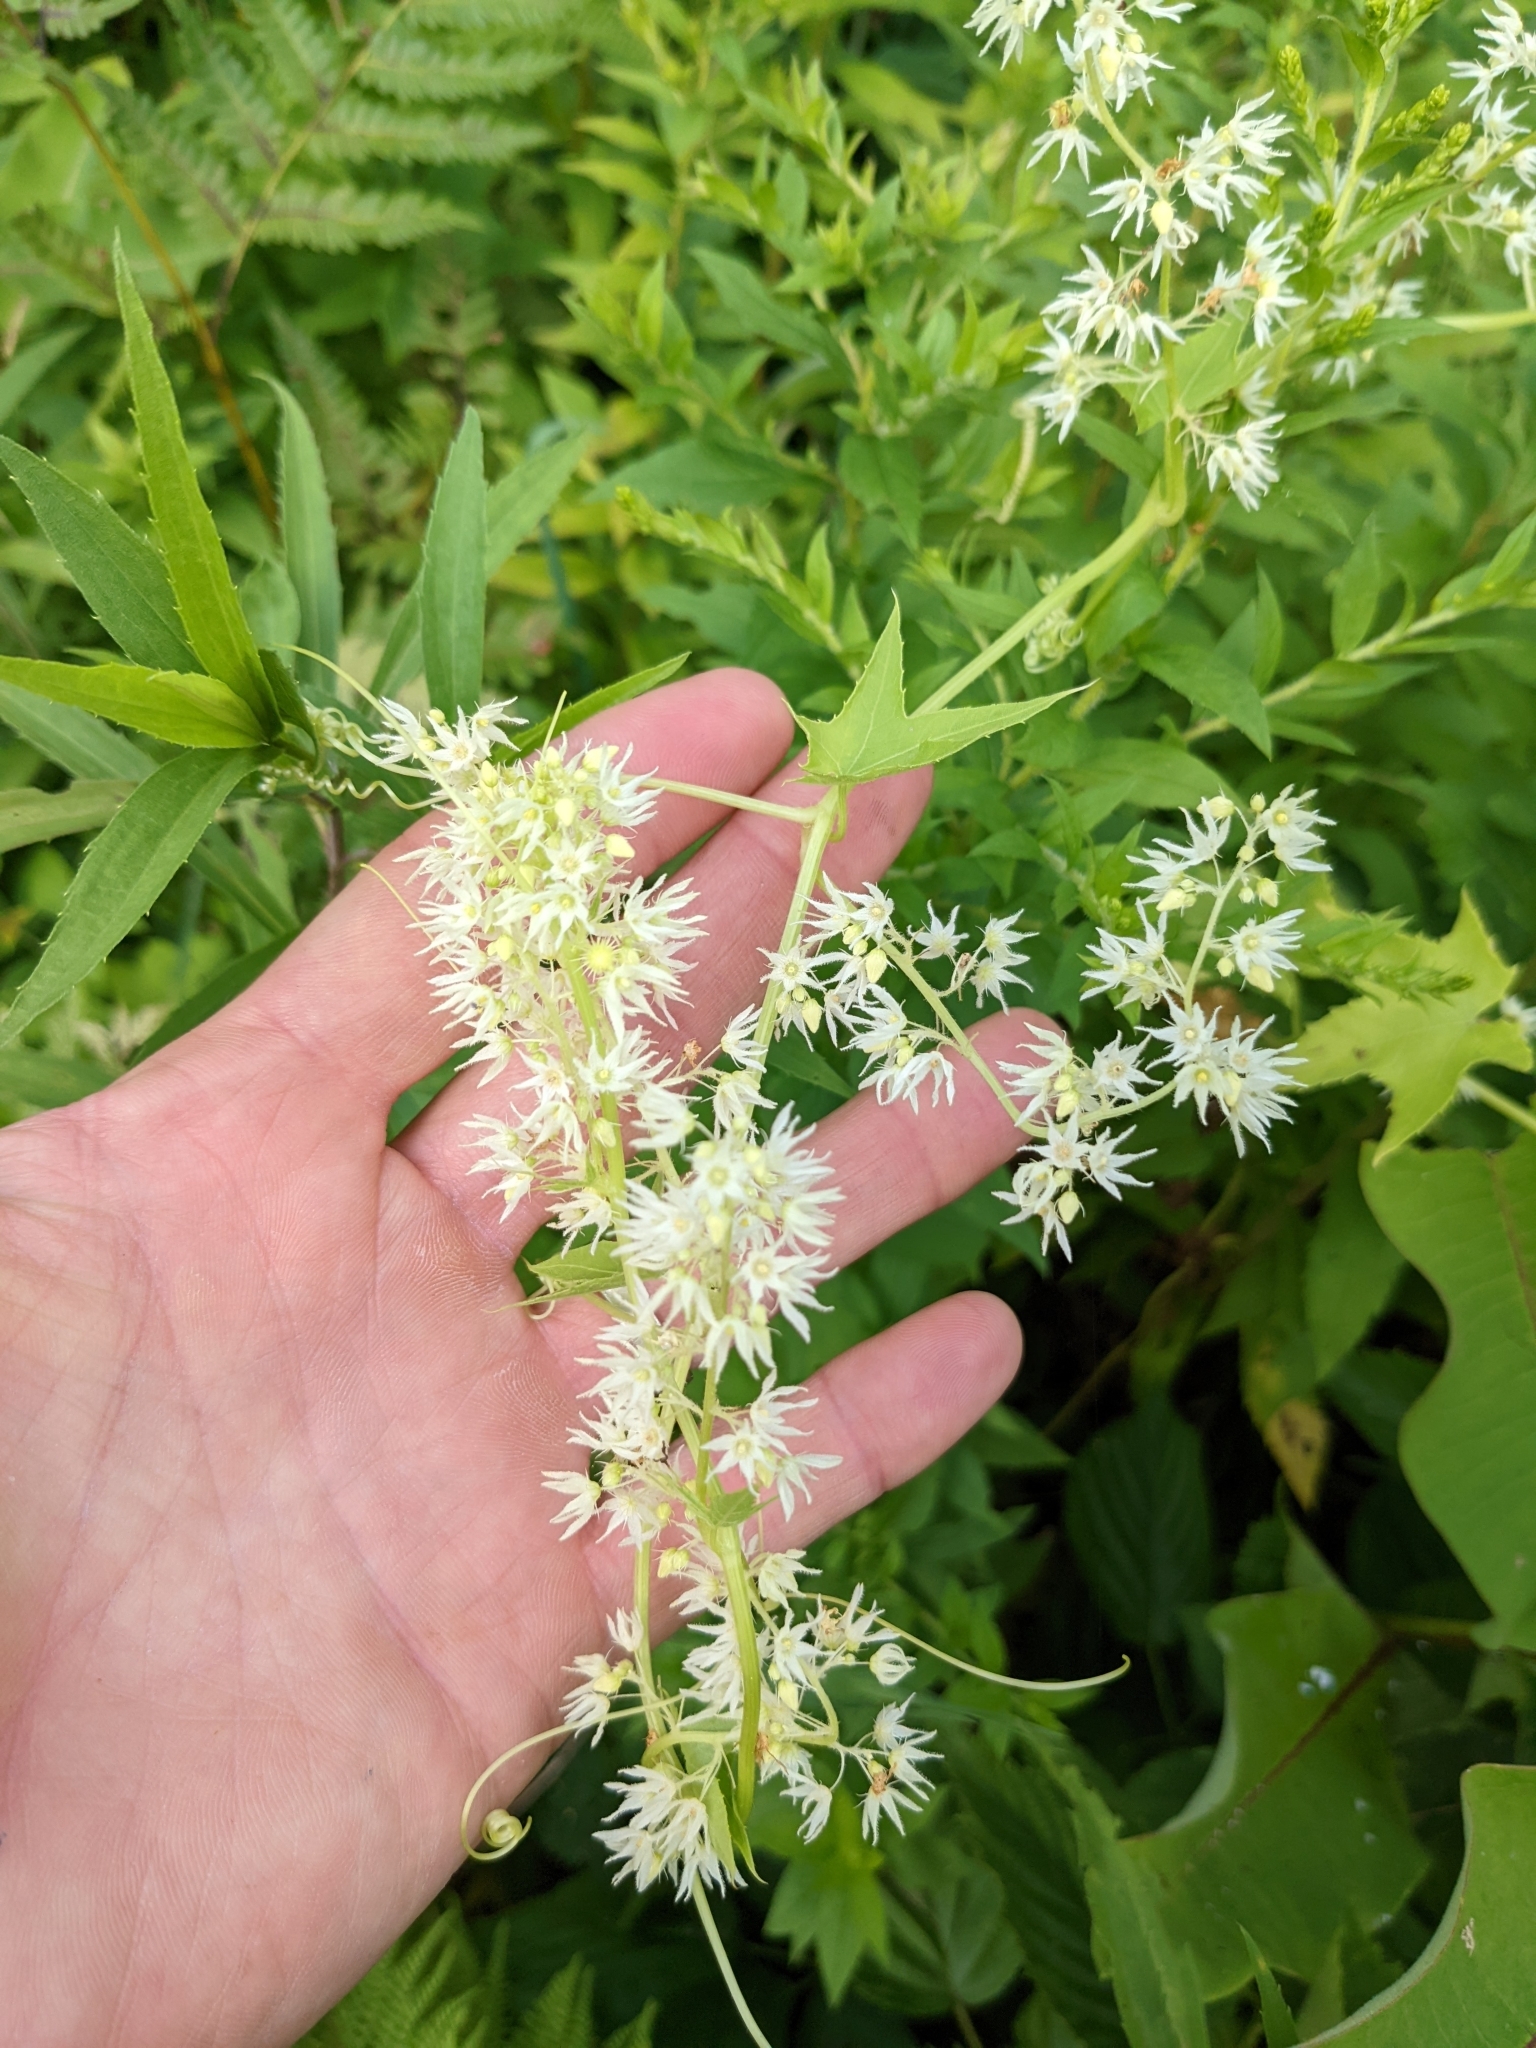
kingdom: Plantae
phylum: Tracheophyta
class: Magnoliopsida
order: Cucurbitales
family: Cucurbitaceae
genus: Echinocystis
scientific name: Echinocystis lobata
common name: Wild cucumber
